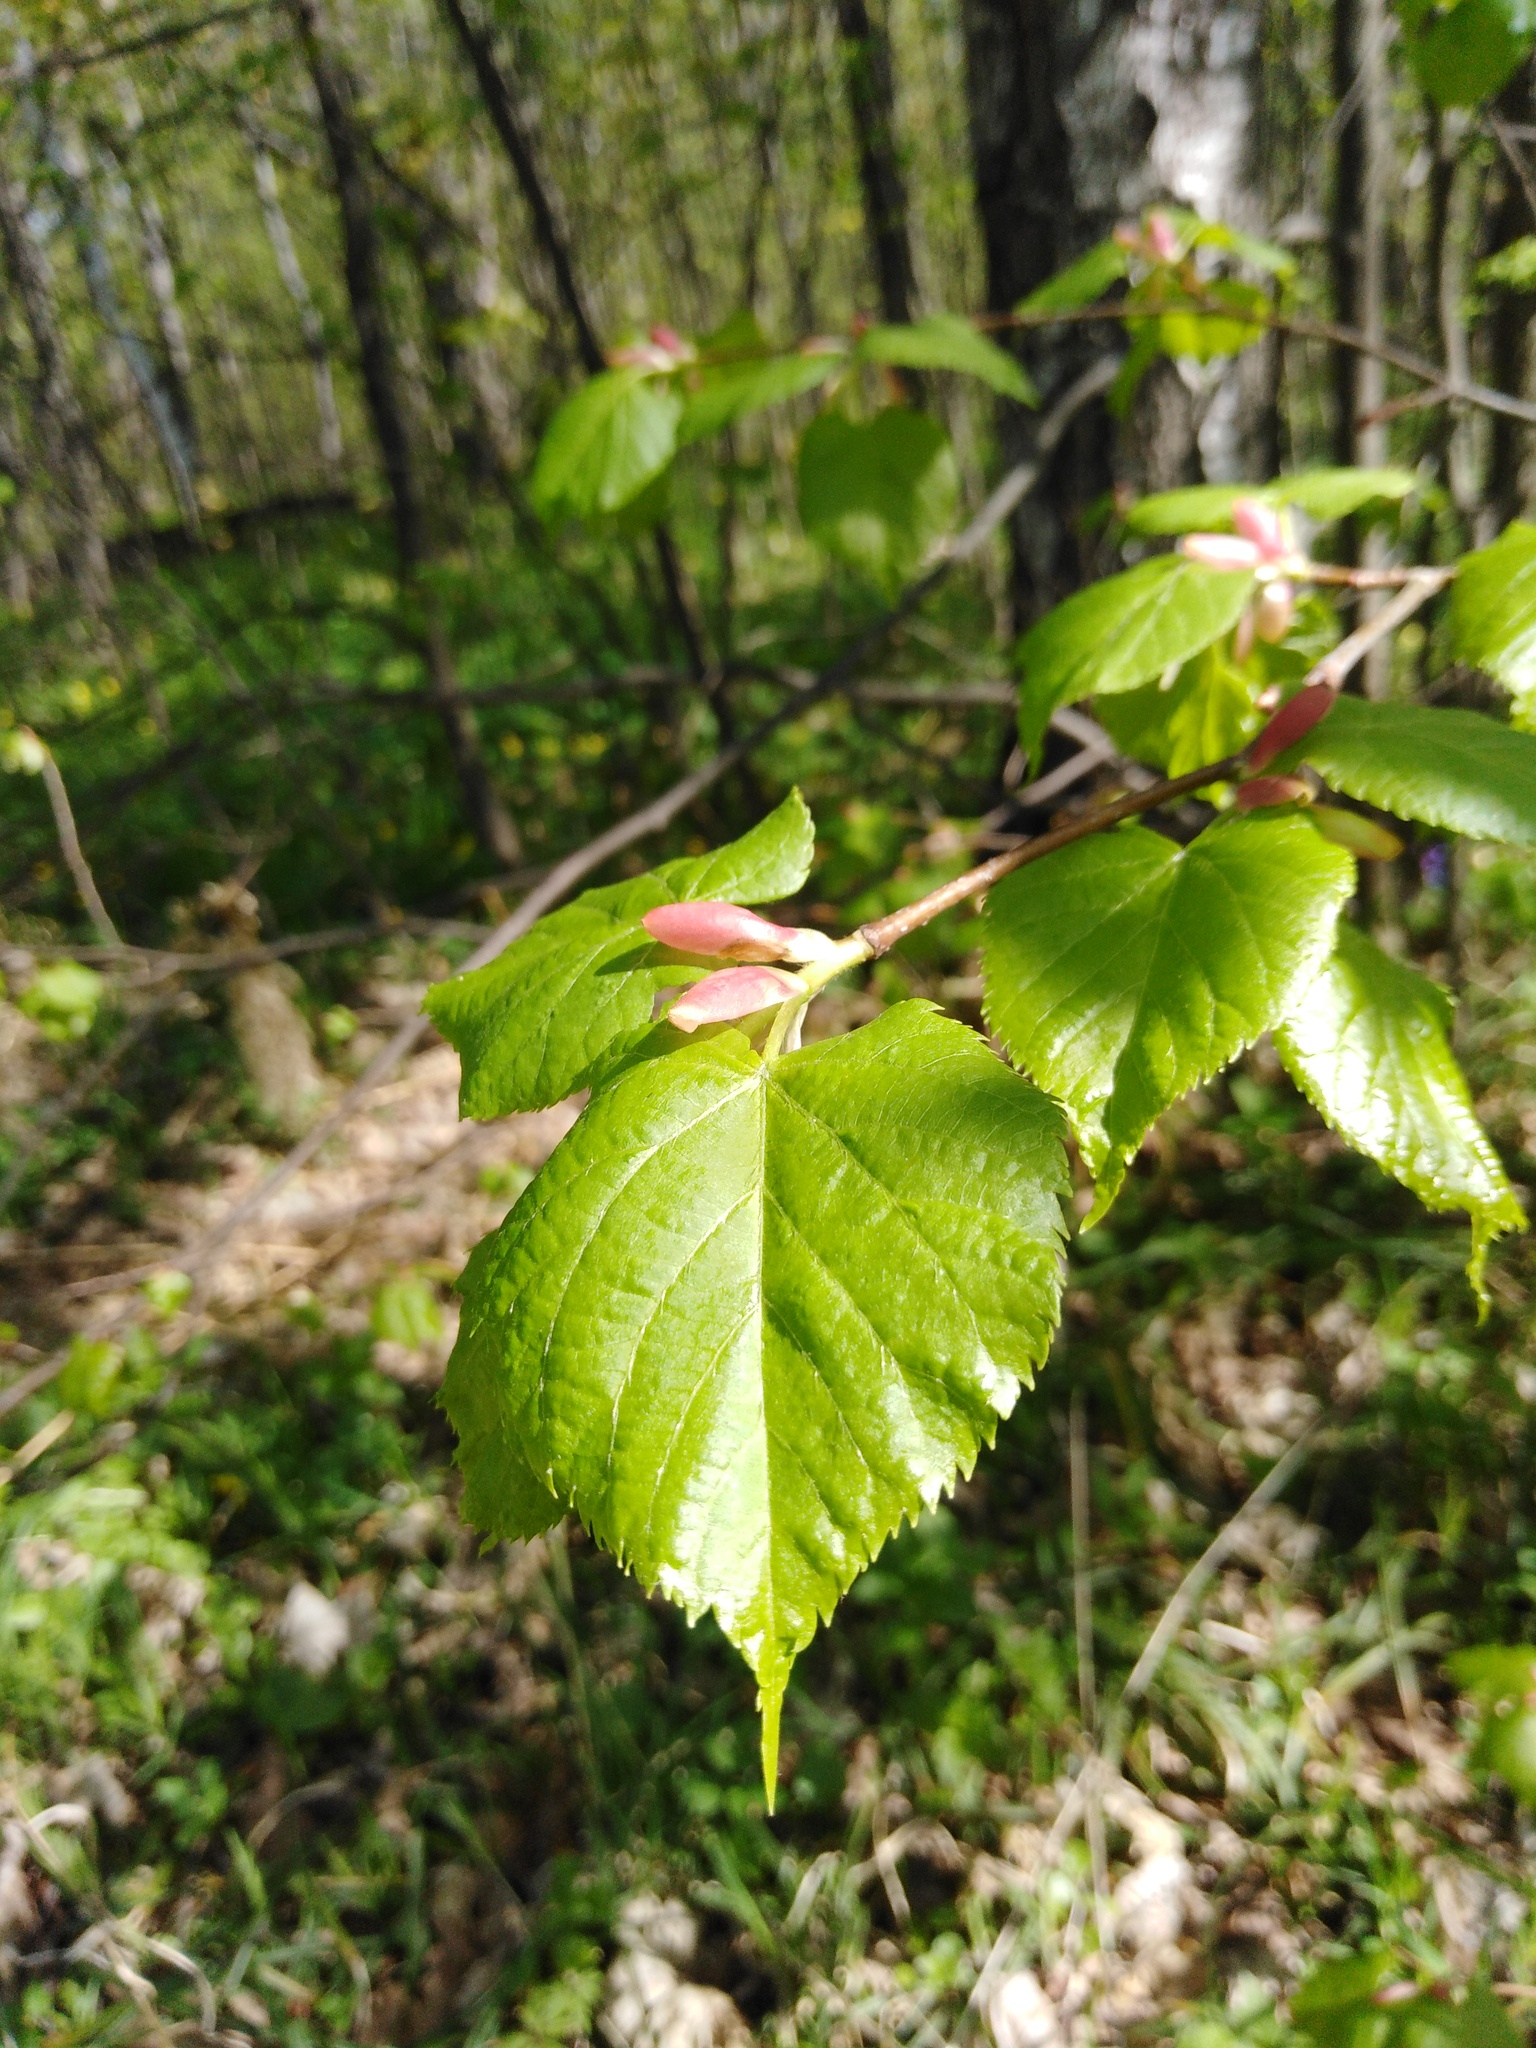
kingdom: Plantae
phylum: Tracheophyta
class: Magnoliopsida
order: Malvales
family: Malvaceae
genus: Tilia
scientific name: Tilia cordata
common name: Small-leaved lime
